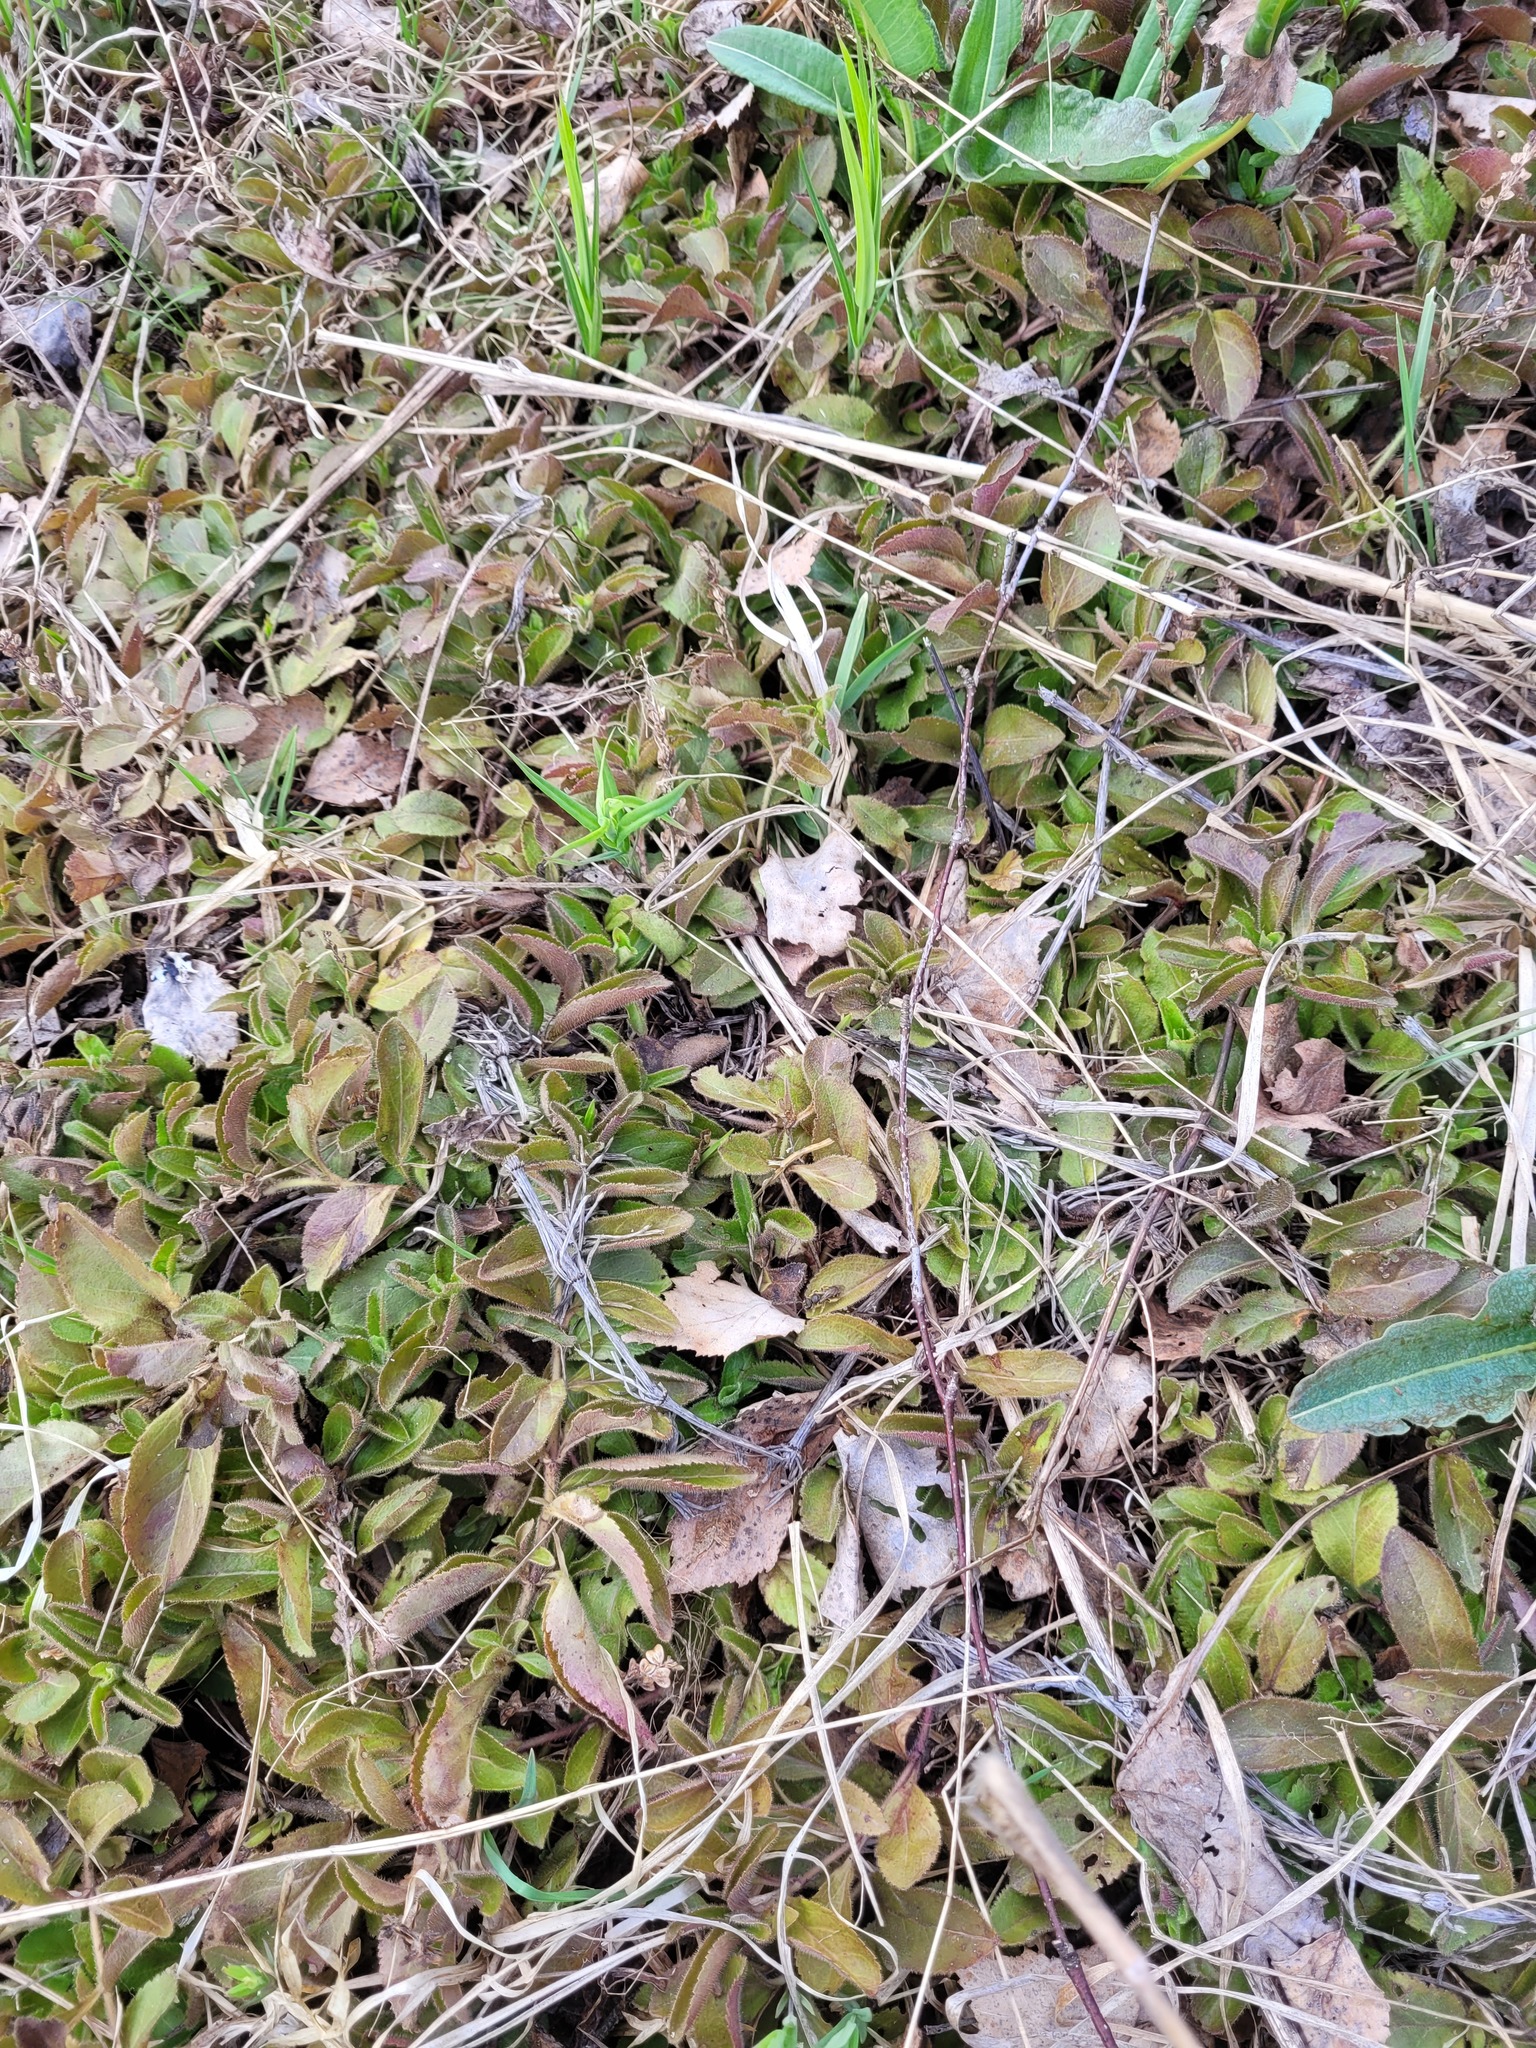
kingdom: Plantae
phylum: Tracheophyta
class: Magnoliopsida
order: Lamiales
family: Plantaginaceae
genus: Veronica
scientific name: Veronica officinalis
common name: Common speedwell
